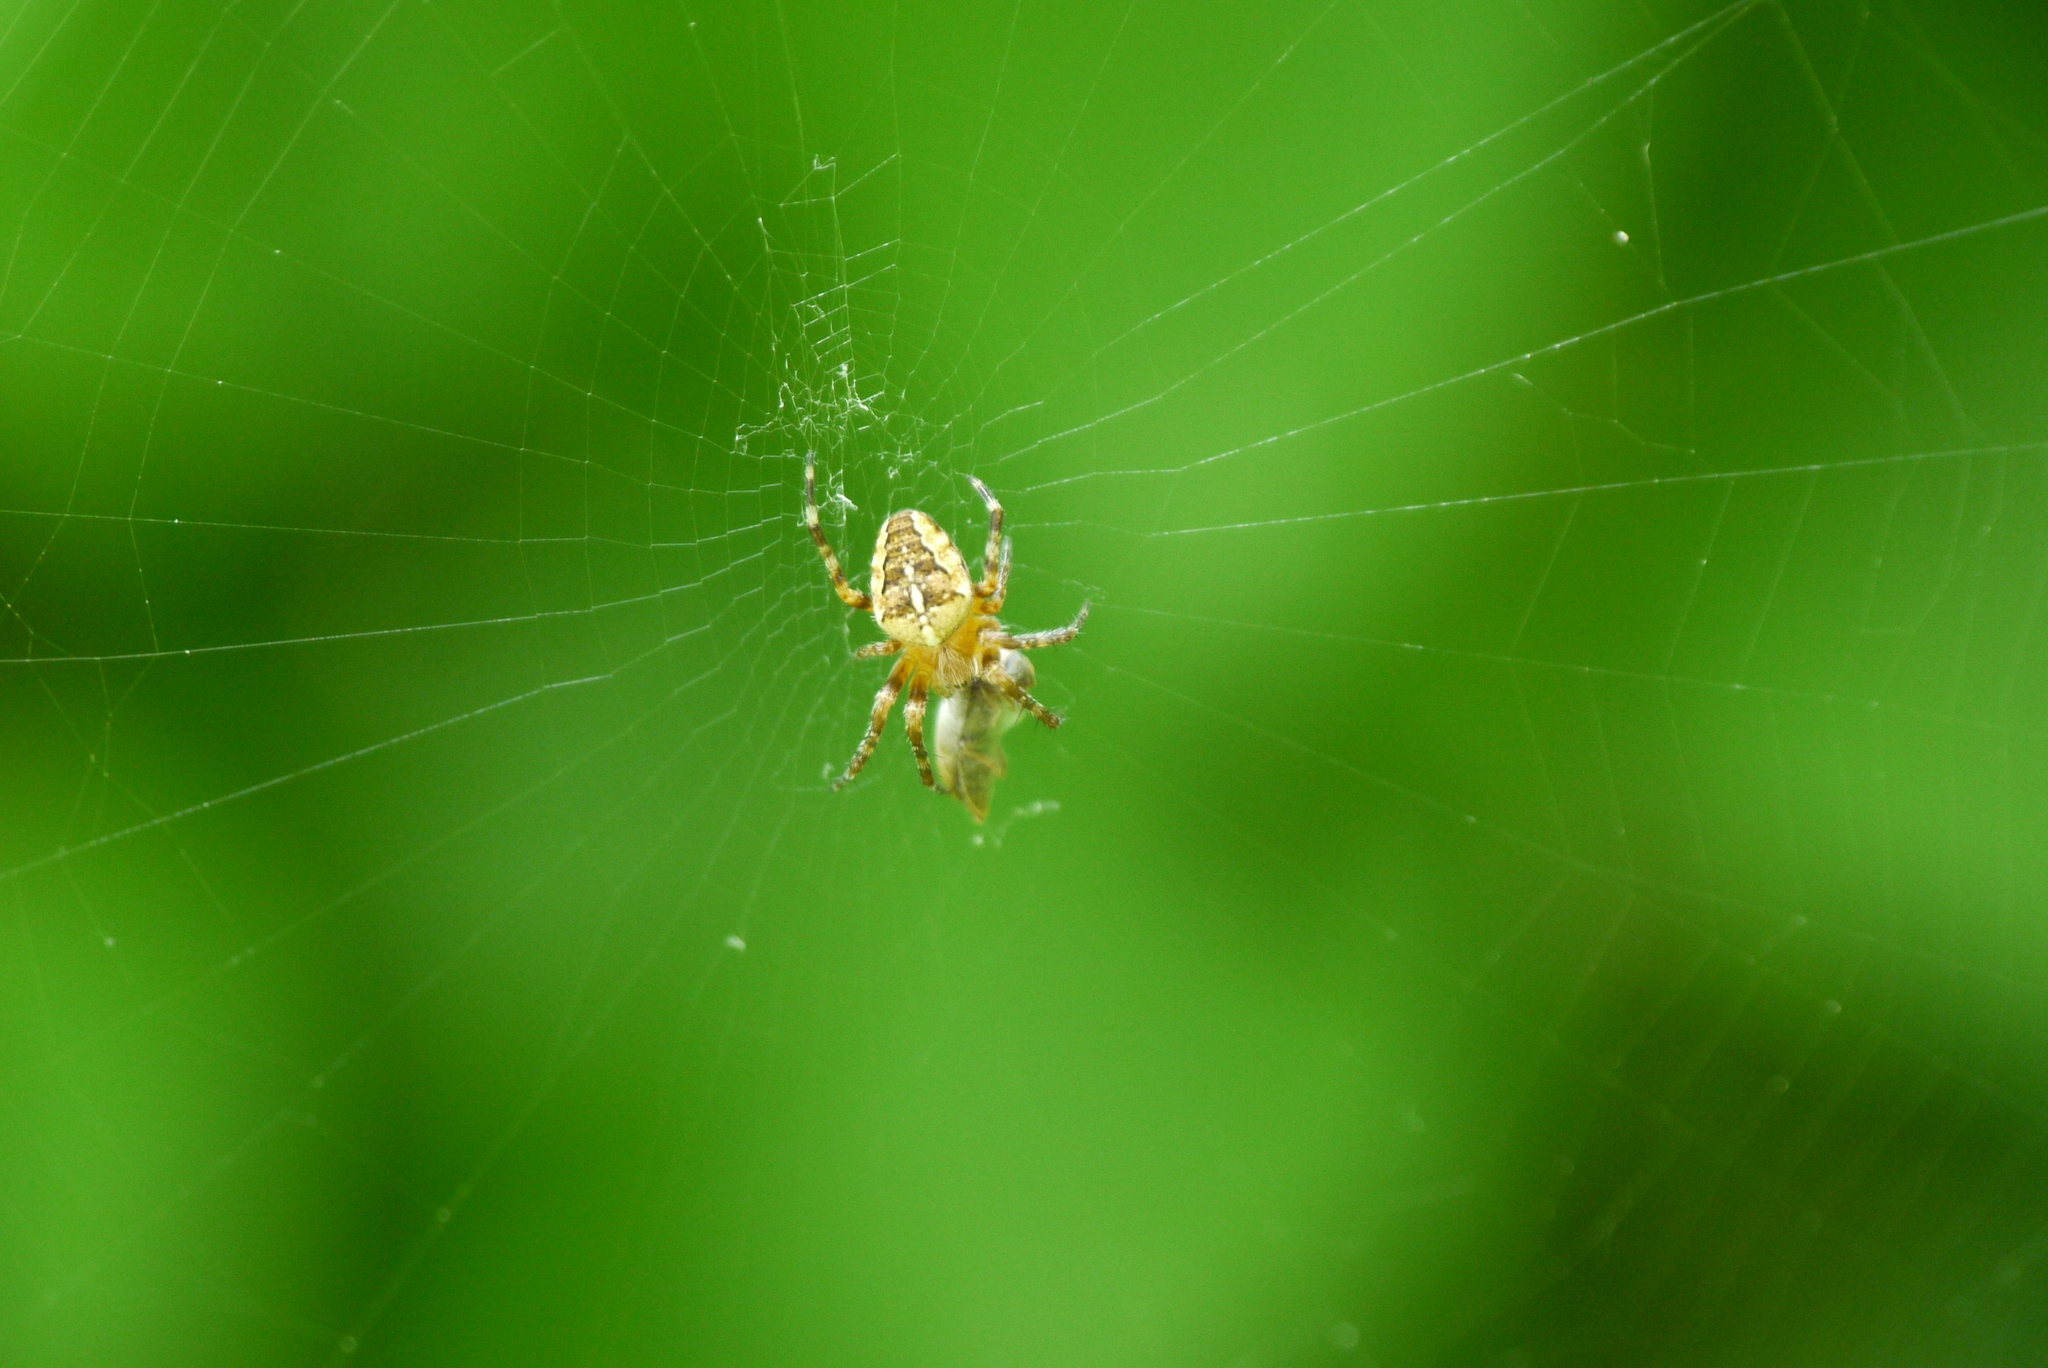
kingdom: Animalia
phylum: Arthropoda
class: Arachnida
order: Araneae
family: Araneidae
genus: Araneus
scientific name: Araneus diadematus
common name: Cross orbweaver
